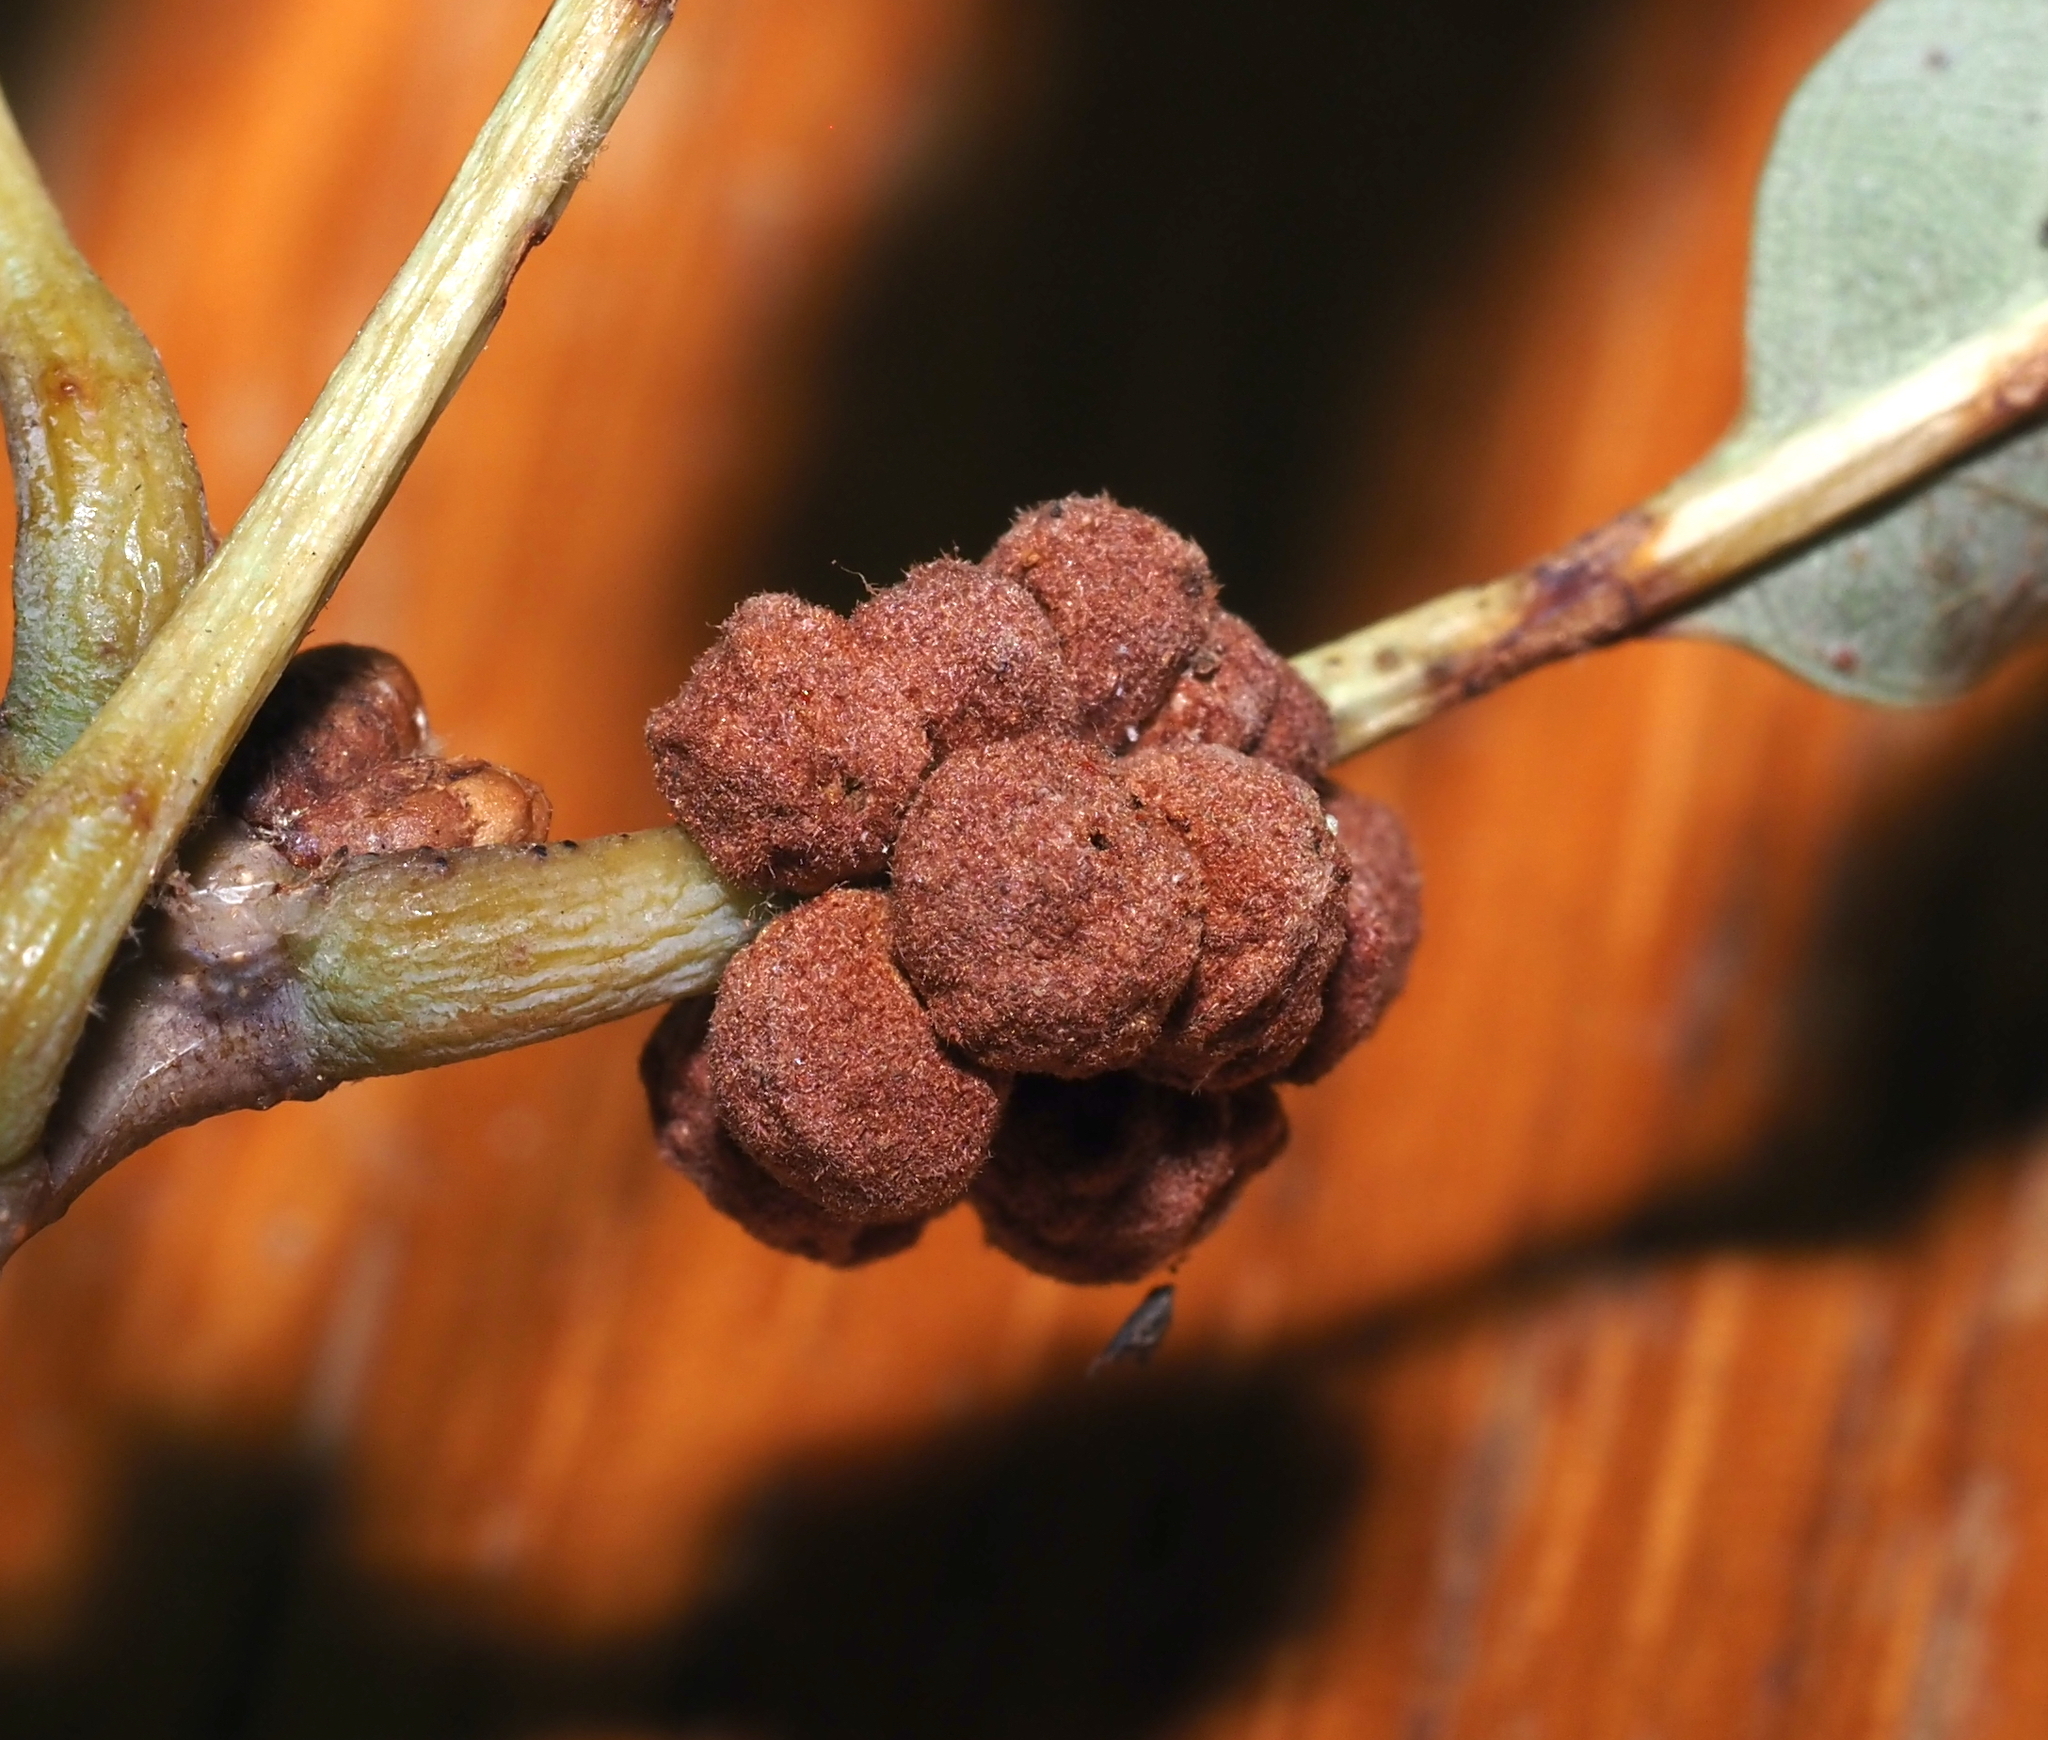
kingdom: Animalia
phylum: Arthropoda
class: Insecta
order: Hymenoptera
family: Cynipidae
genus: Andricus
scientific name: Andricus
